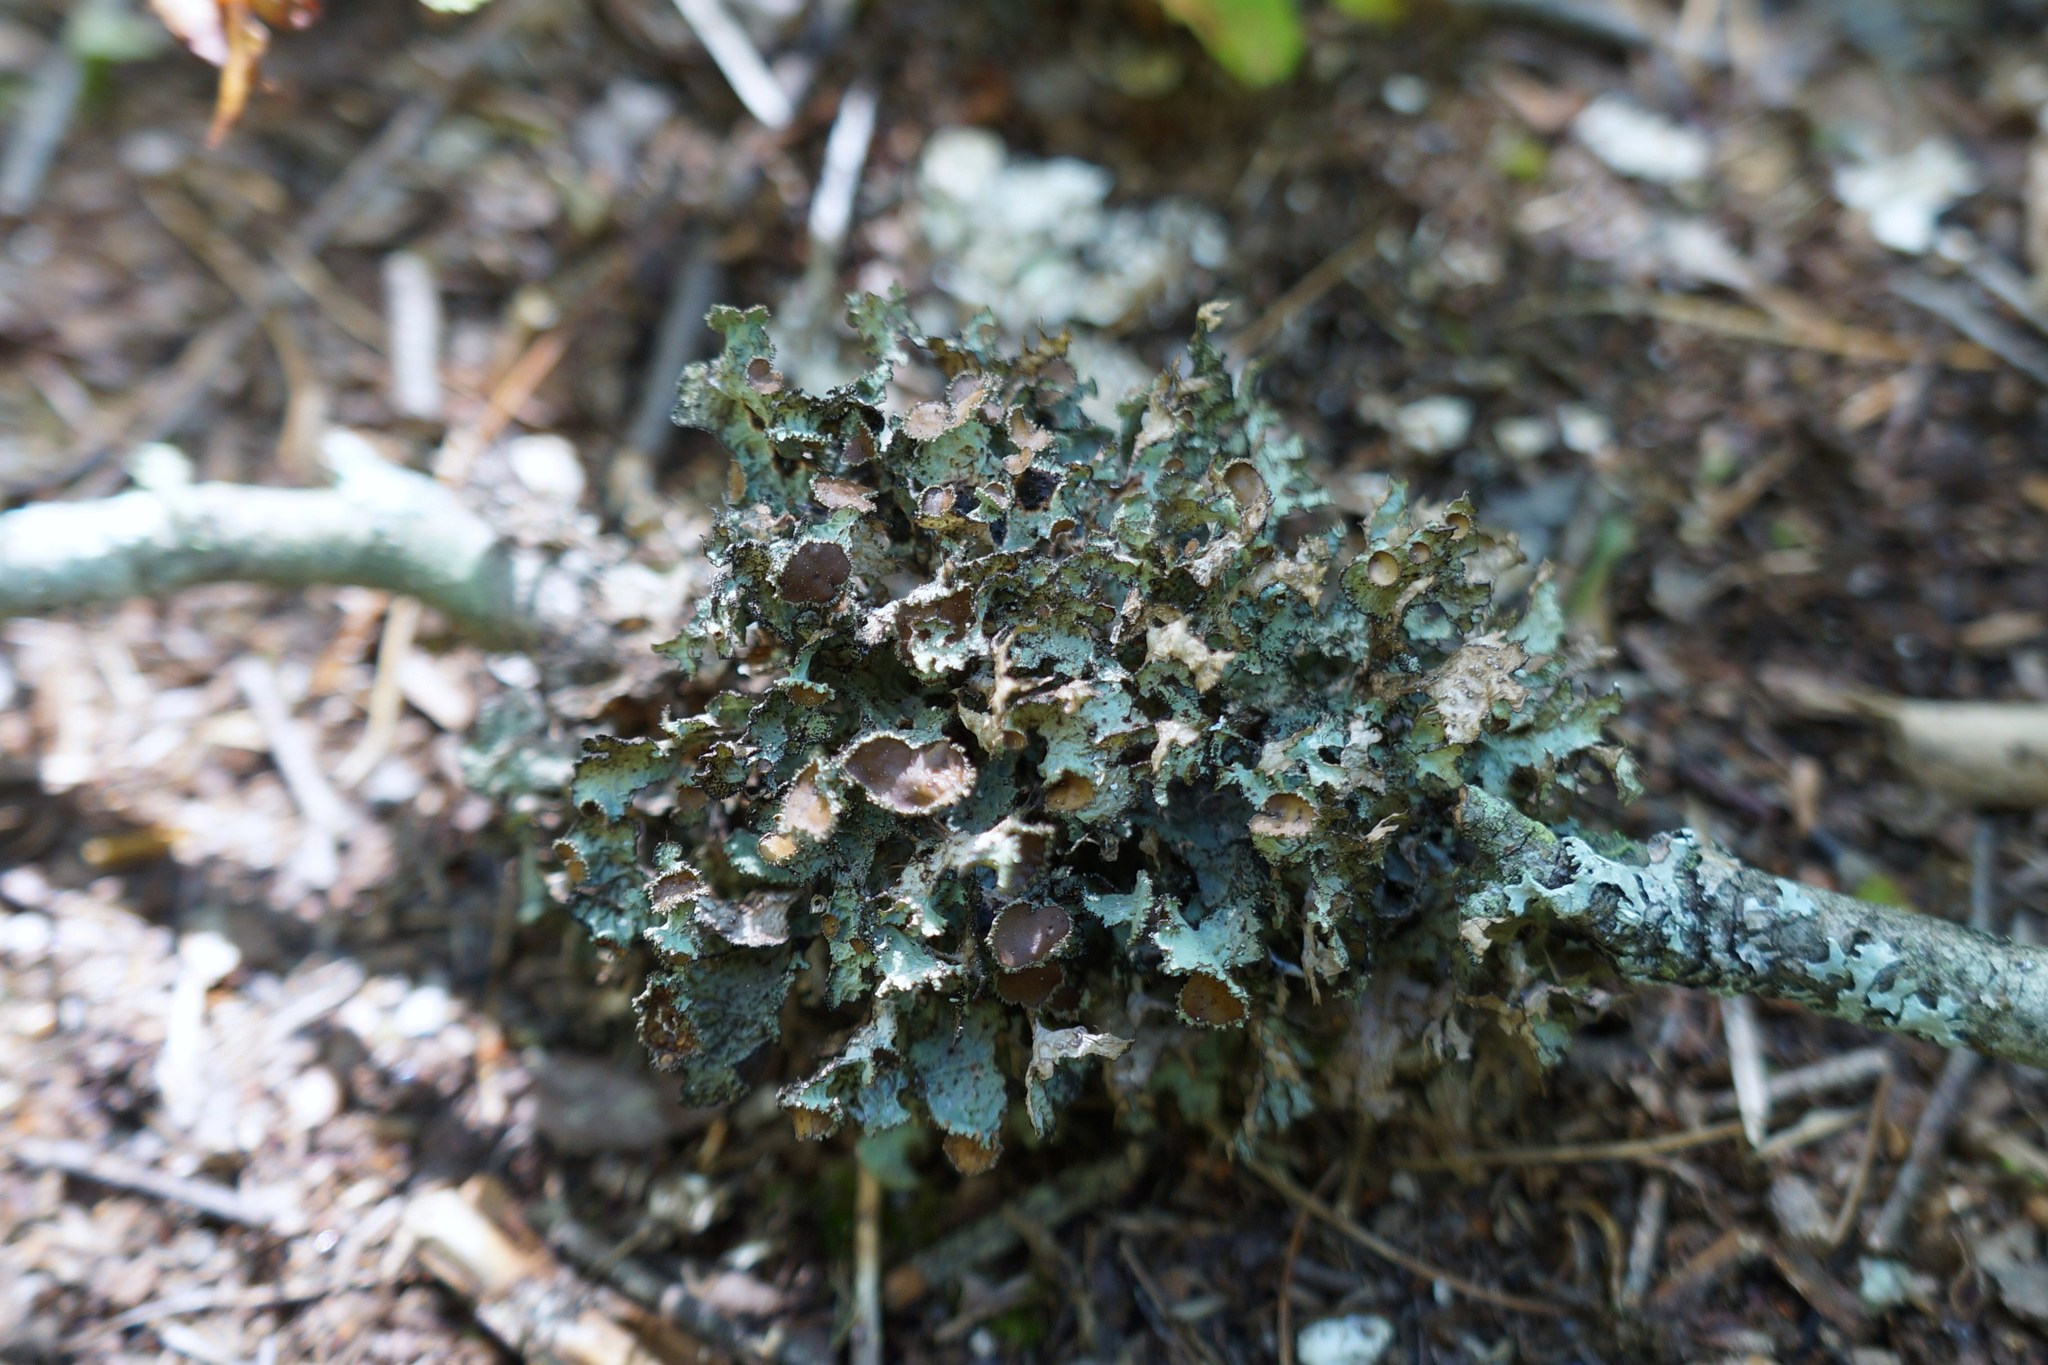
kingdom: Fungi
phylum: Ascomycota
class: Lecanoromycetes
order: Lecanorales
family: Parmeliaceae
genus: Tuckermanopsis
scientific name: Tuckermanopsis
